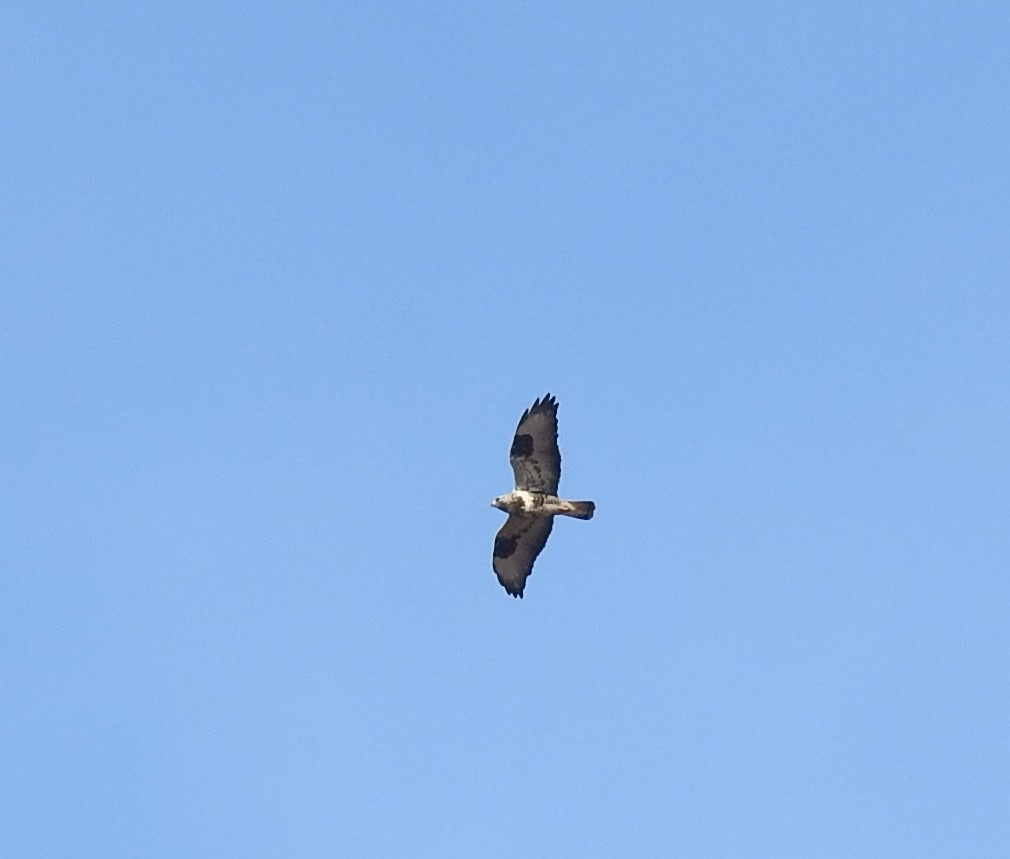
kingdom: Animalia
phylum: Chordata
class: Aves
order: Accipitriformes
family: Accipitridae
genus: Buteo
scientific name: Buteo lagopus
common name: Rough-legged buzzard
